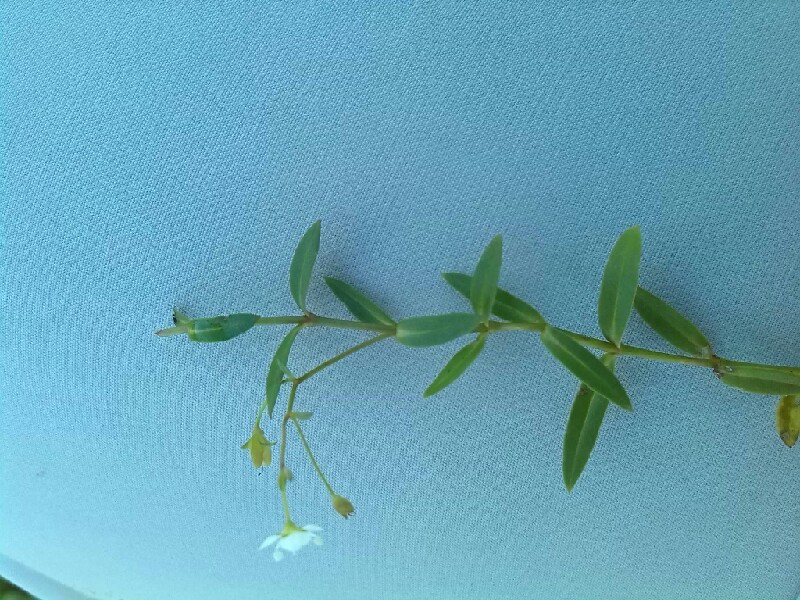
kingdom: Plantae
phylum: Tracheophyta
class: Magnoliopsida
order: Lamiales
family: Plantaginaceae
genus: Veronica
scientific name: Veronica scutellata
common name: Marsh speedwell
